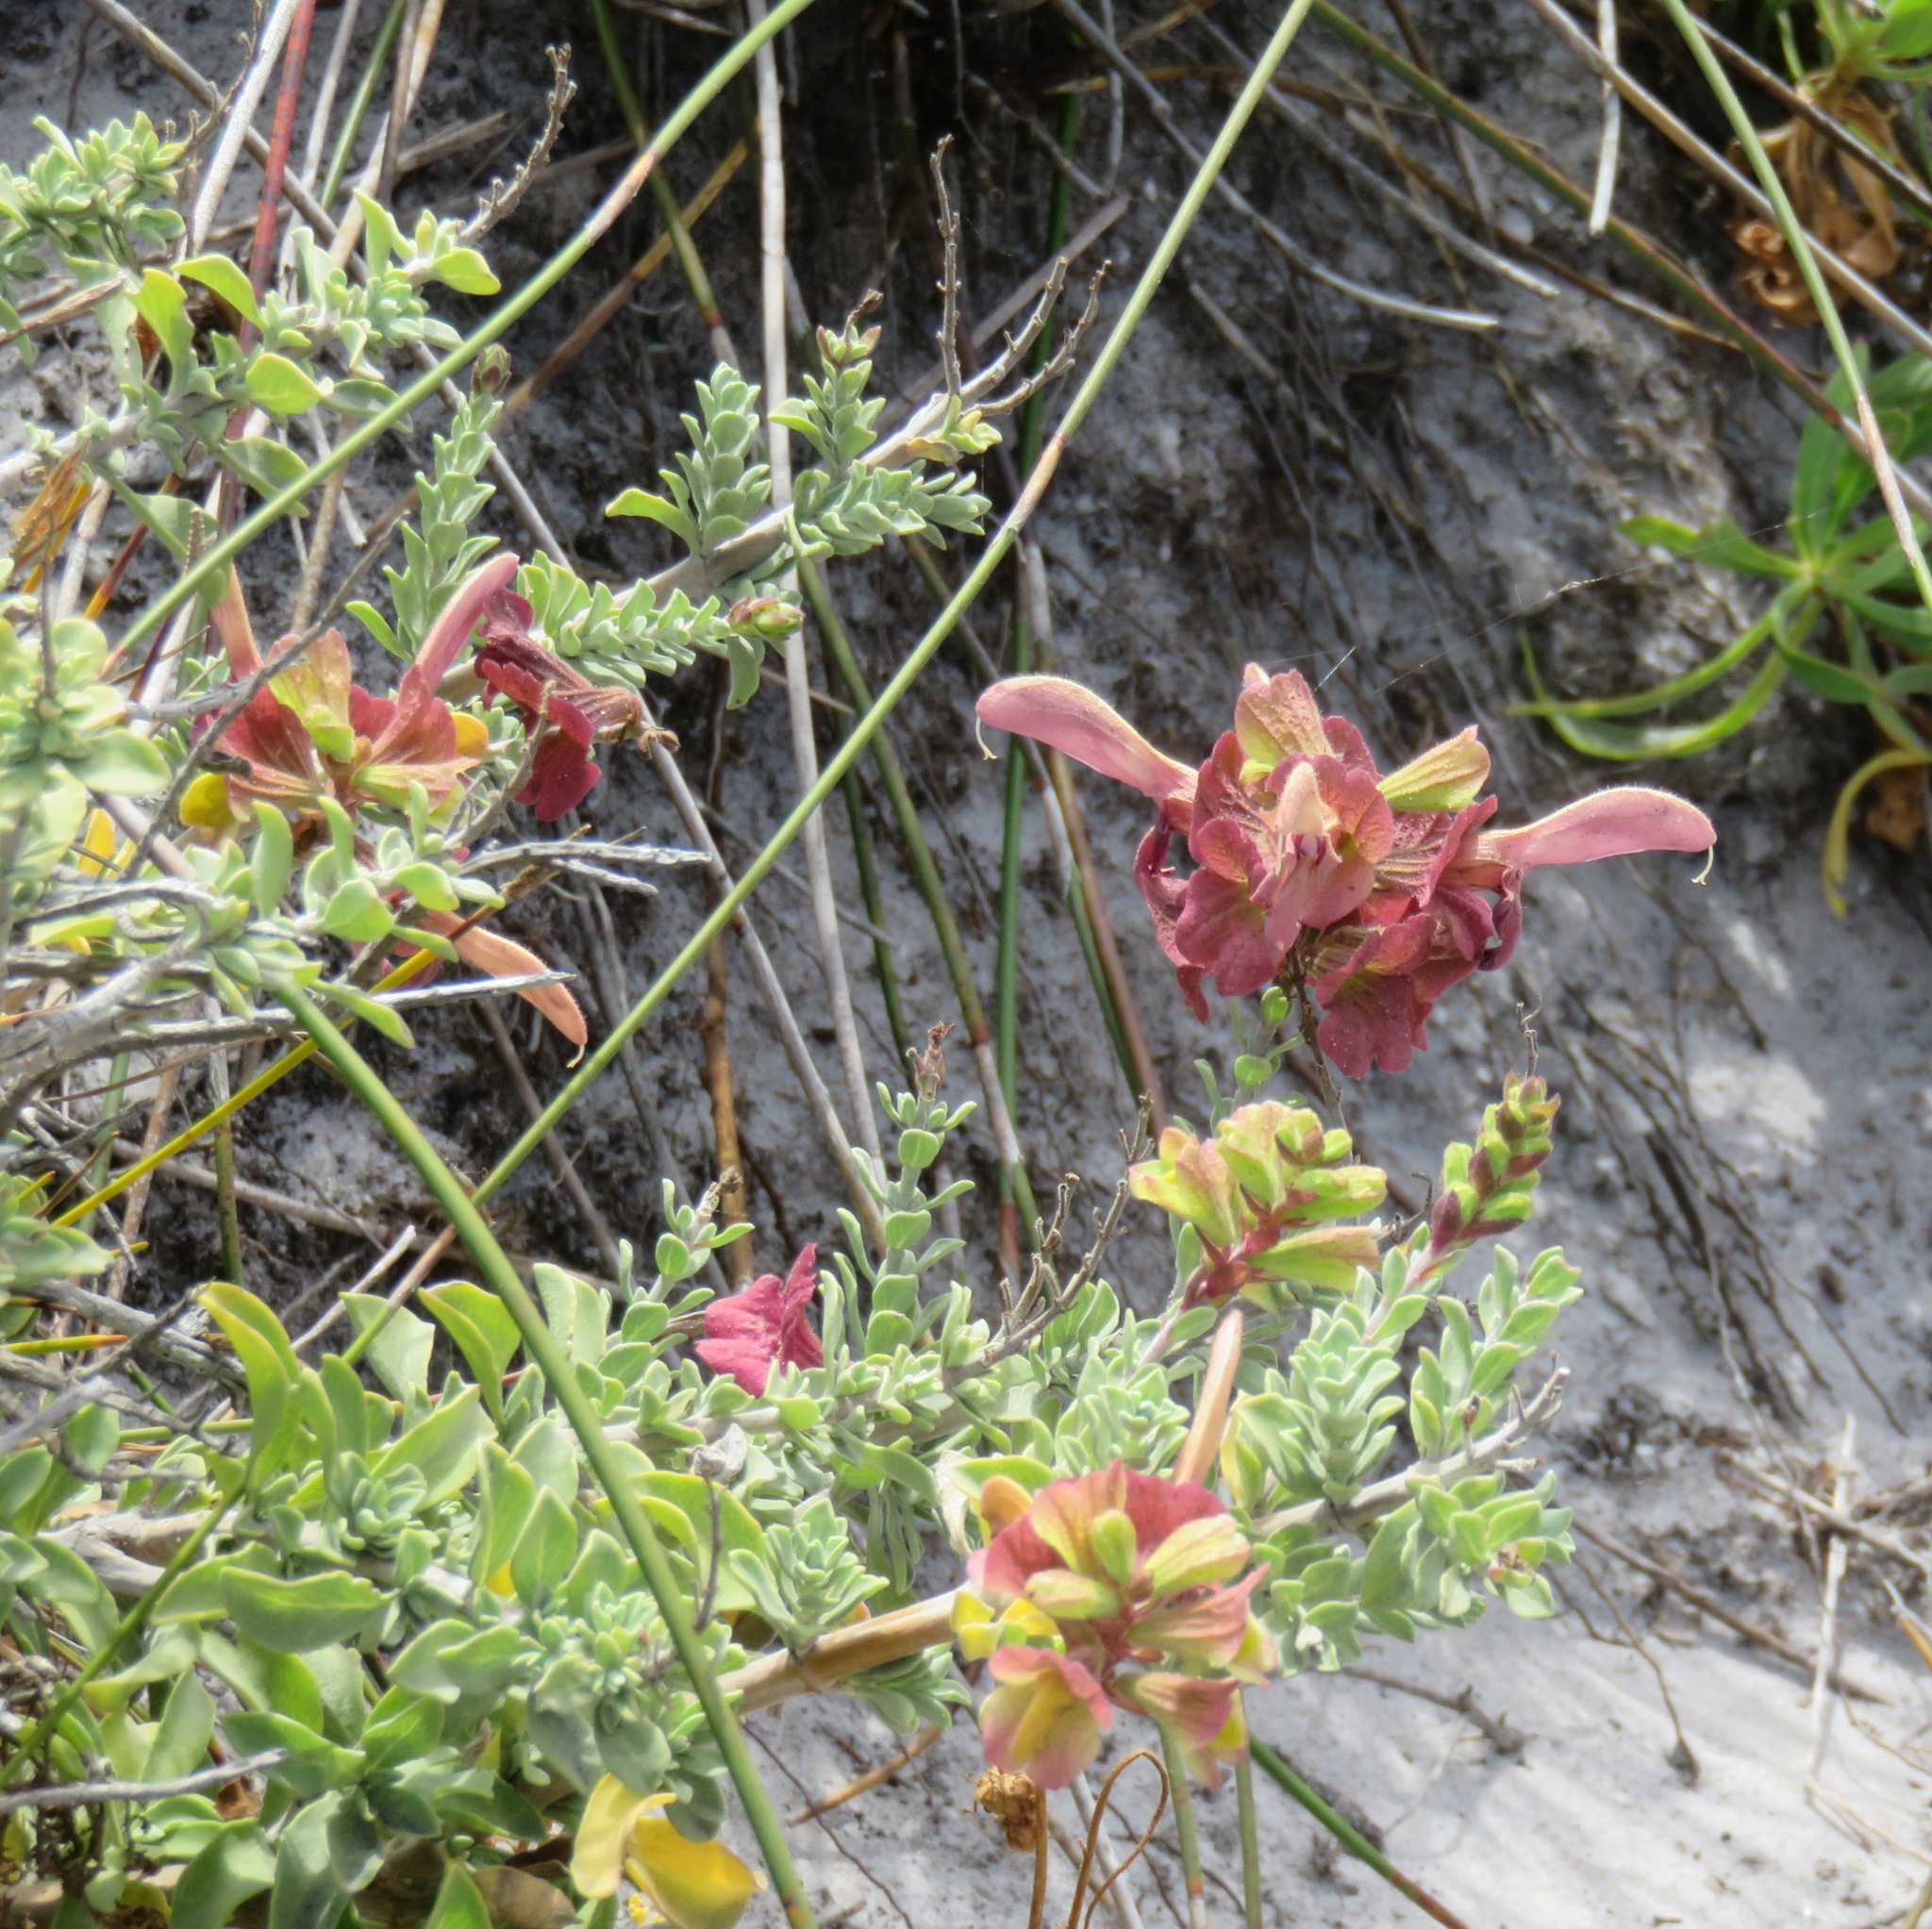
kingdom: Plantae
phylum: Tracheophyta
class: Magnoliopsida
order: Lamiales
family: Lamiaceae
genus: Salvia
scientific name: Salvia lanceolata
